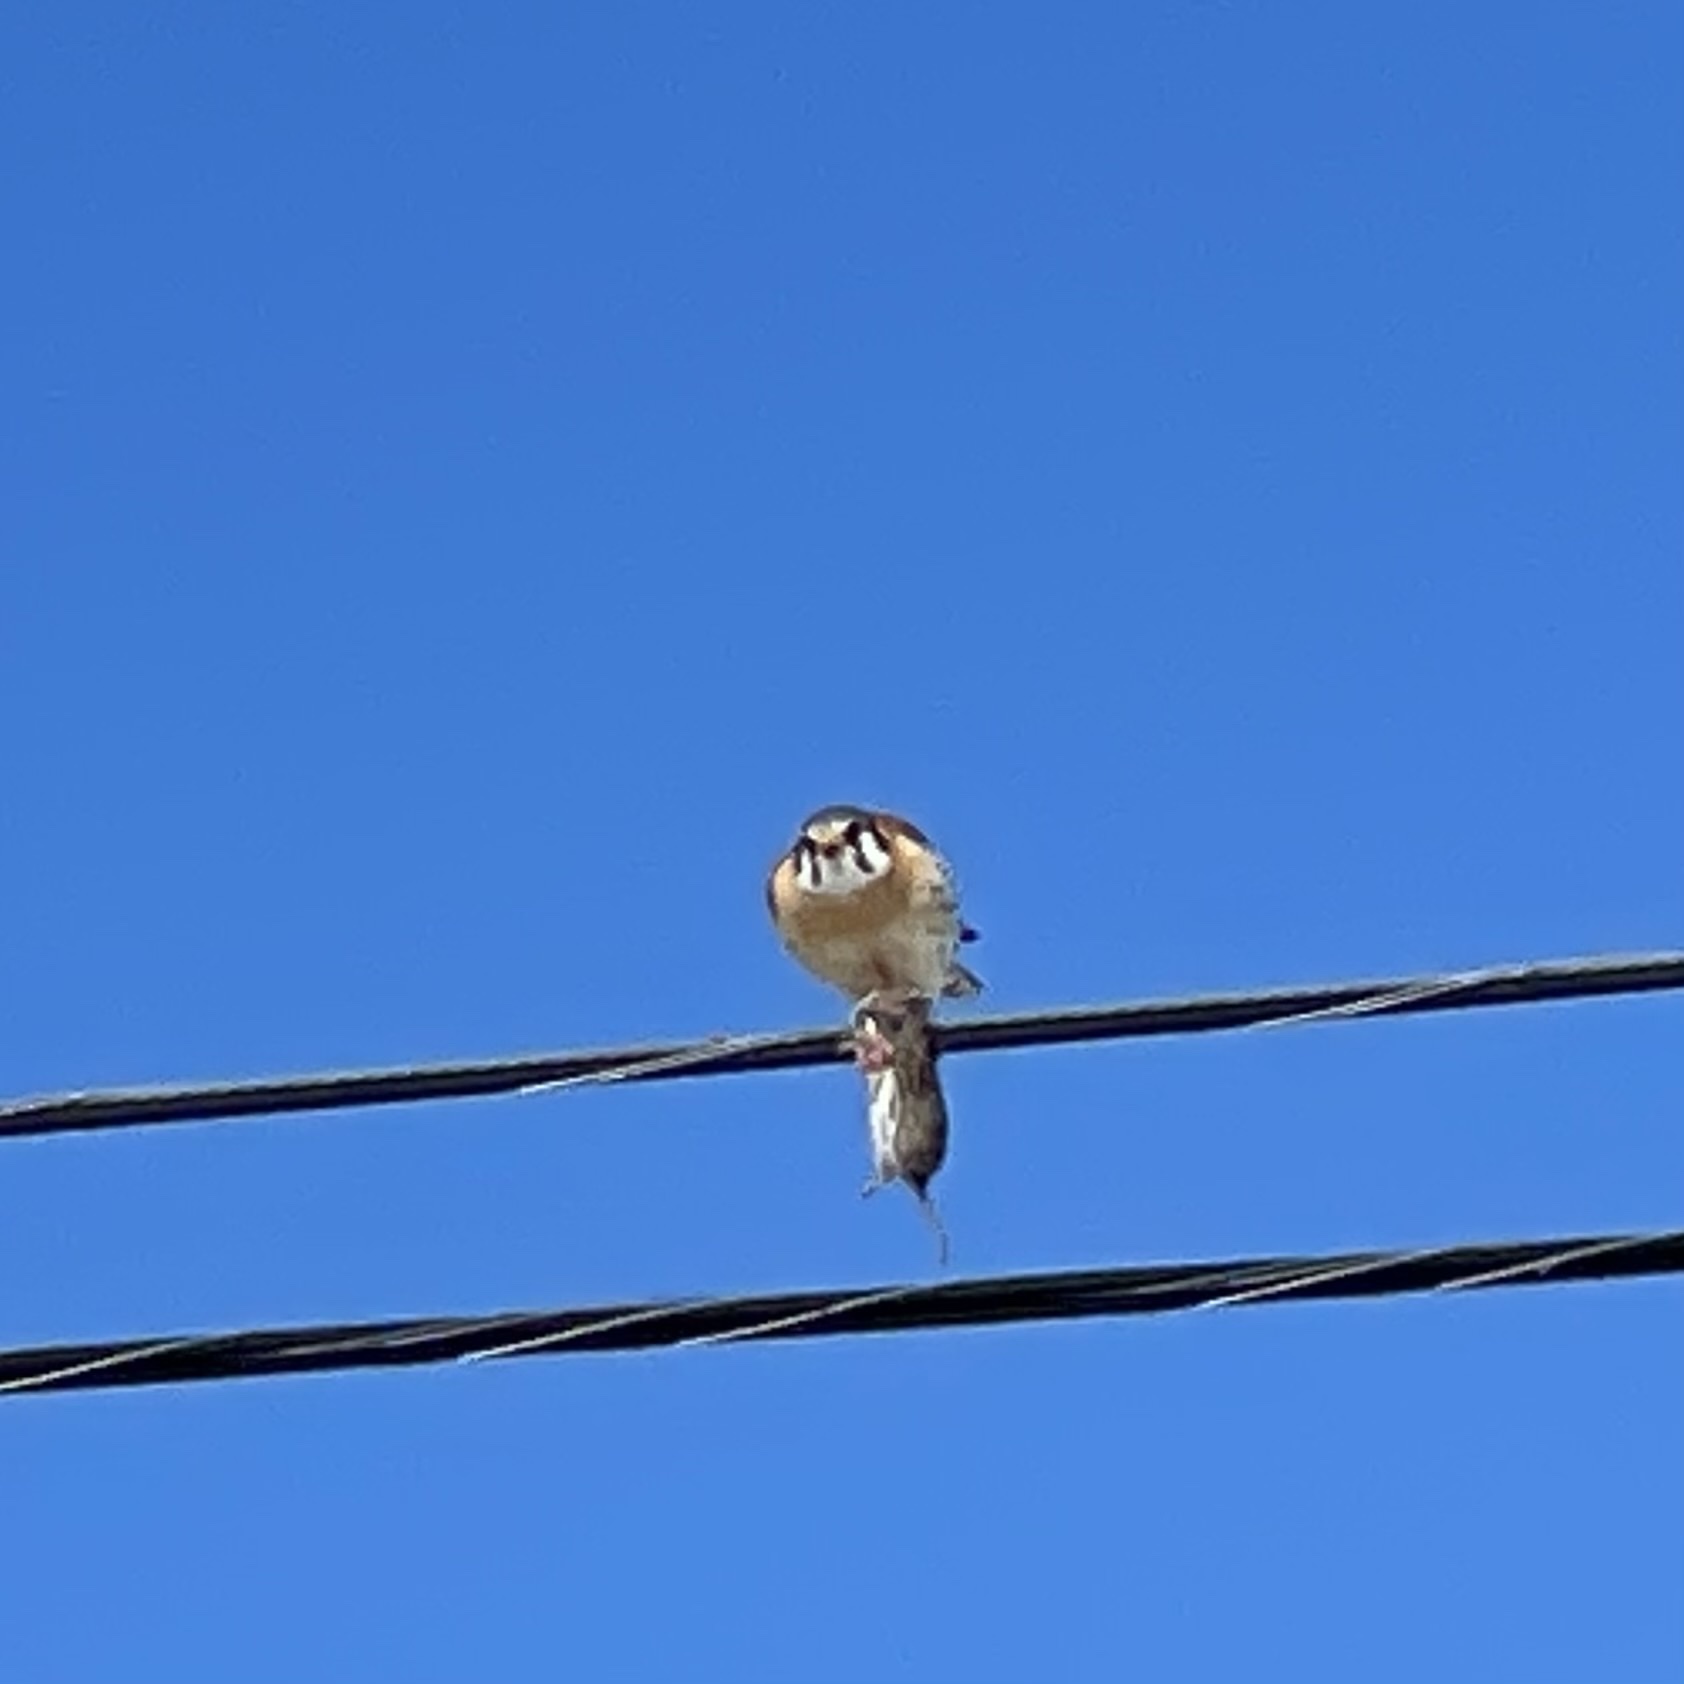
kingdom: Animalia
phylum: Chordata
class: Aves
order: Falconiformes
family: Falconidae
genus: Falco
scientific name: Falco sparverius
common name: American kestrel
